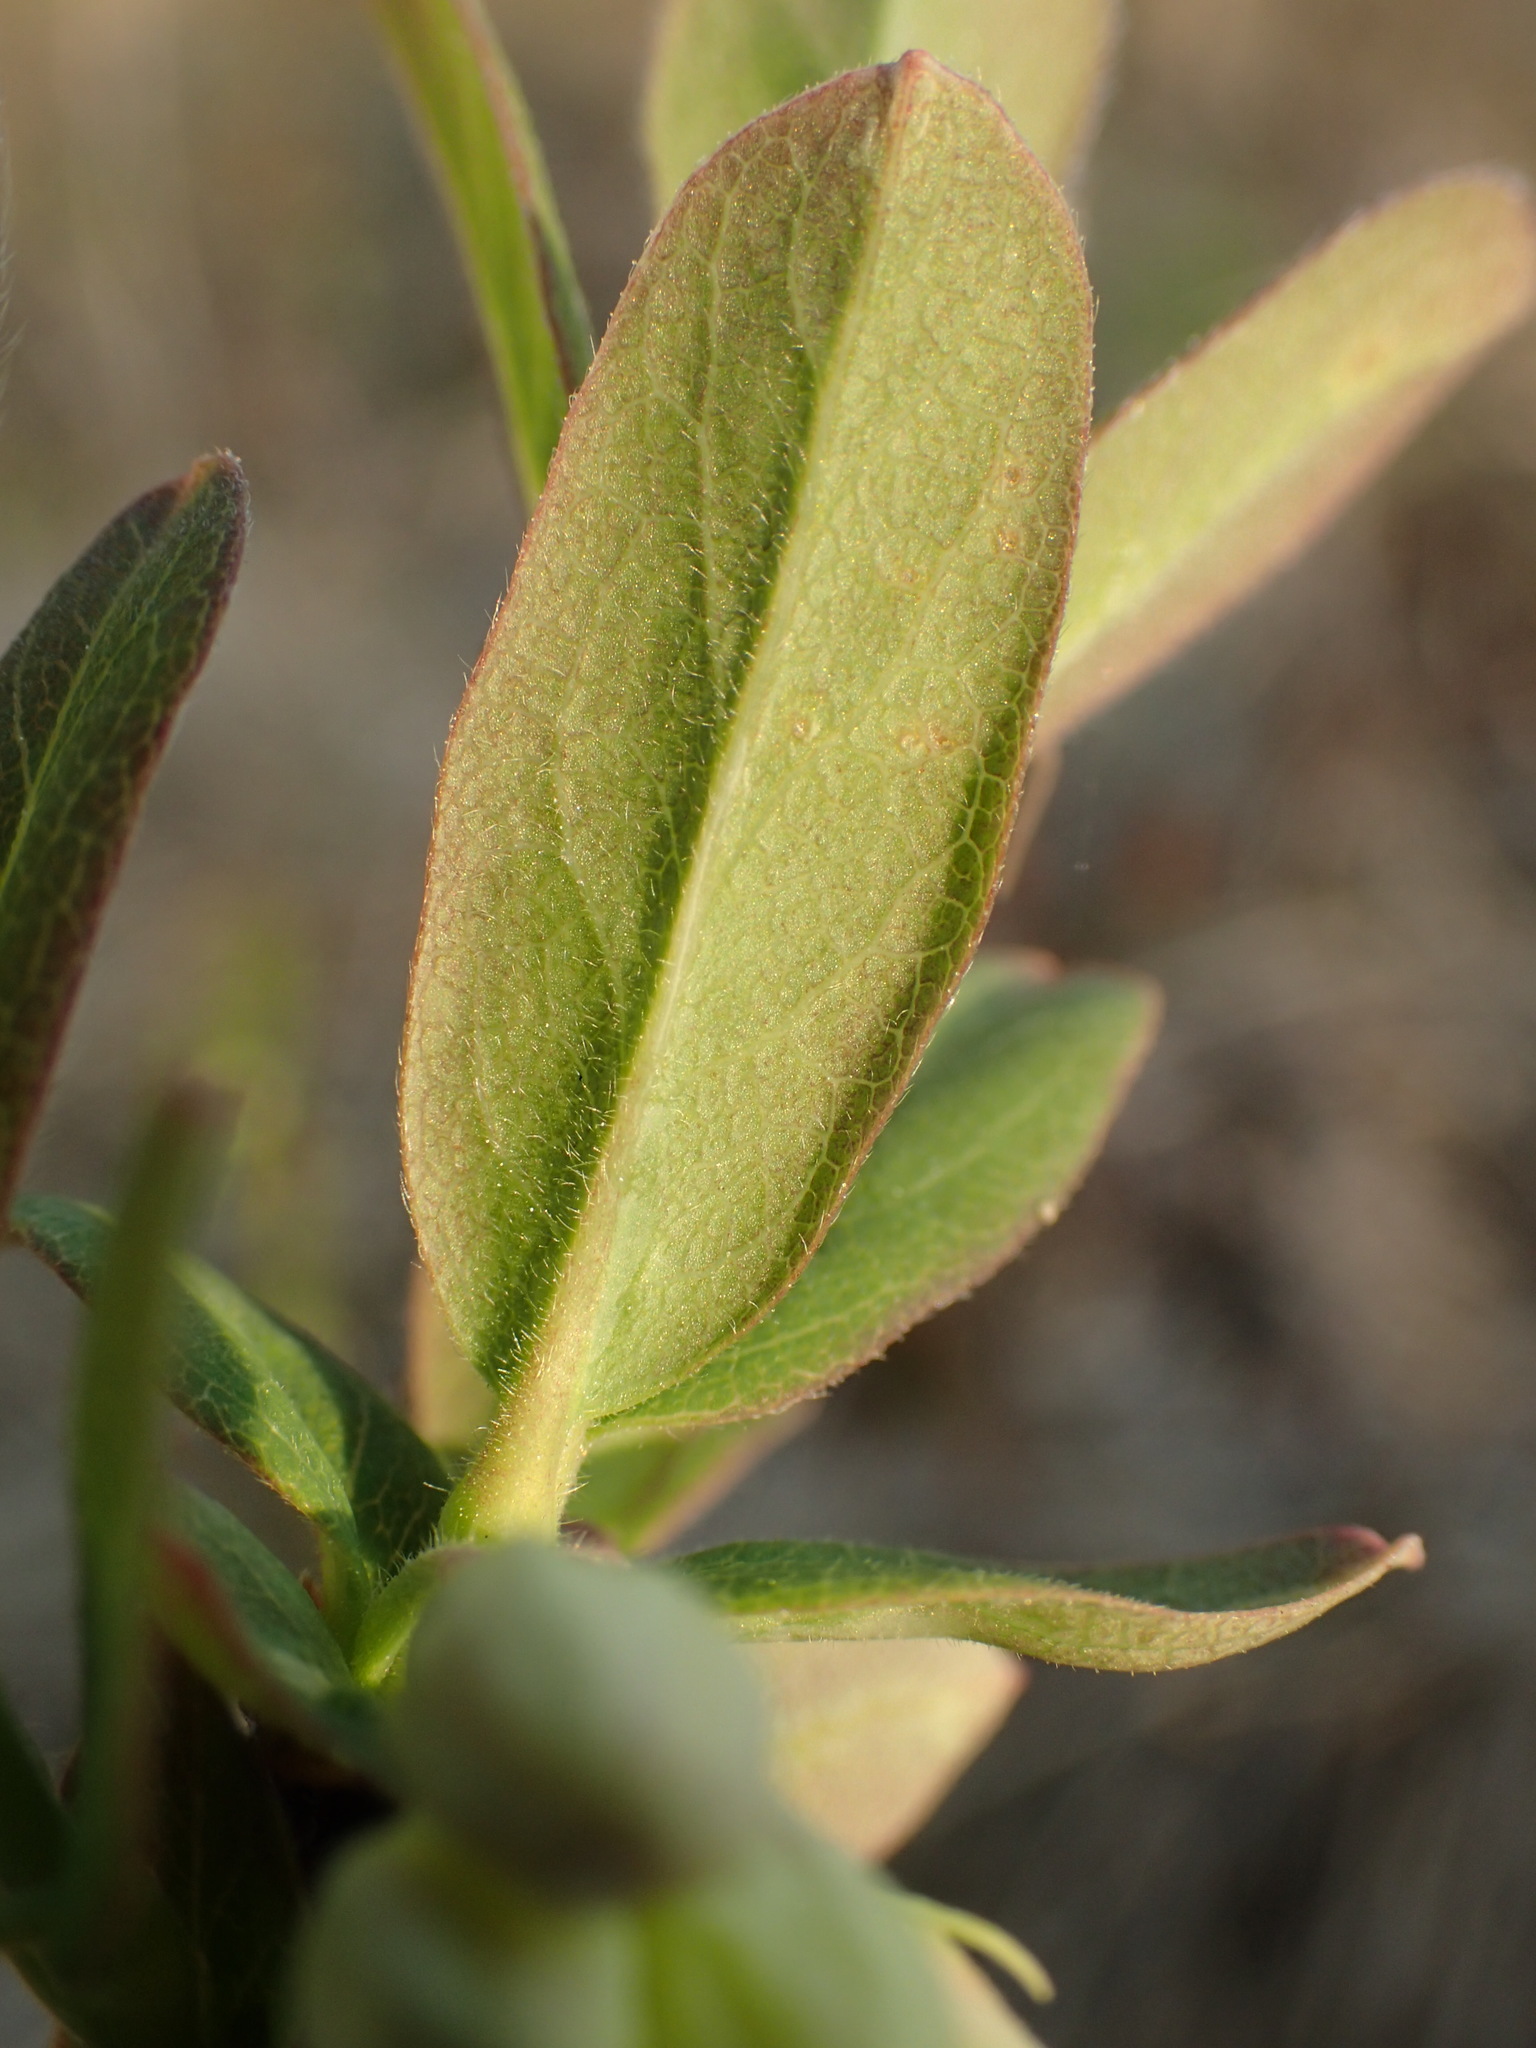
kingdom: Plantae
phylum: Tracheophyta
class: Magnoliopsida
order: Dipsacales
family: Caprifoliaceae
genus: Lonicera
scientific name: Lonicera villosa
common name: Mountain fly-honeysuckle
